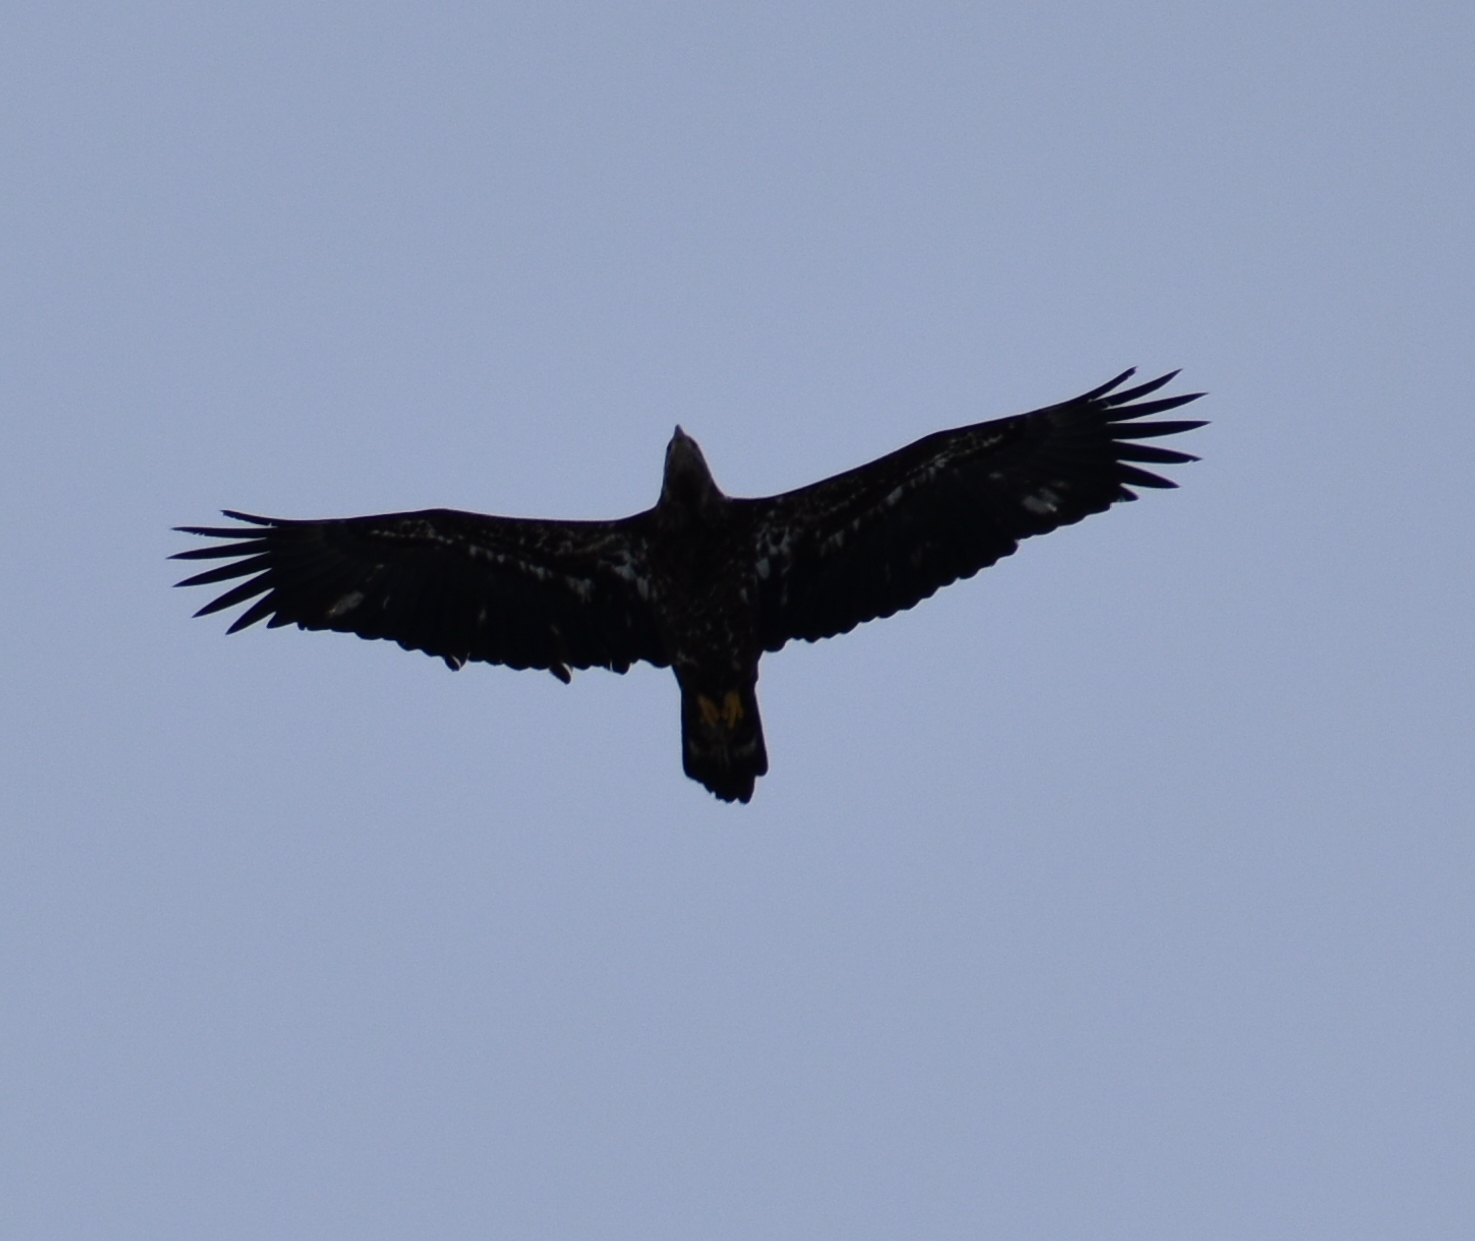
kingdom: Animalia
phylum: Chordata
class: Aves
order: Accipitriformes
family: Accipitridae
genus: Haliaeetus
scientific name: Haliaeetus leucocephalus
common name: Bald eagle
